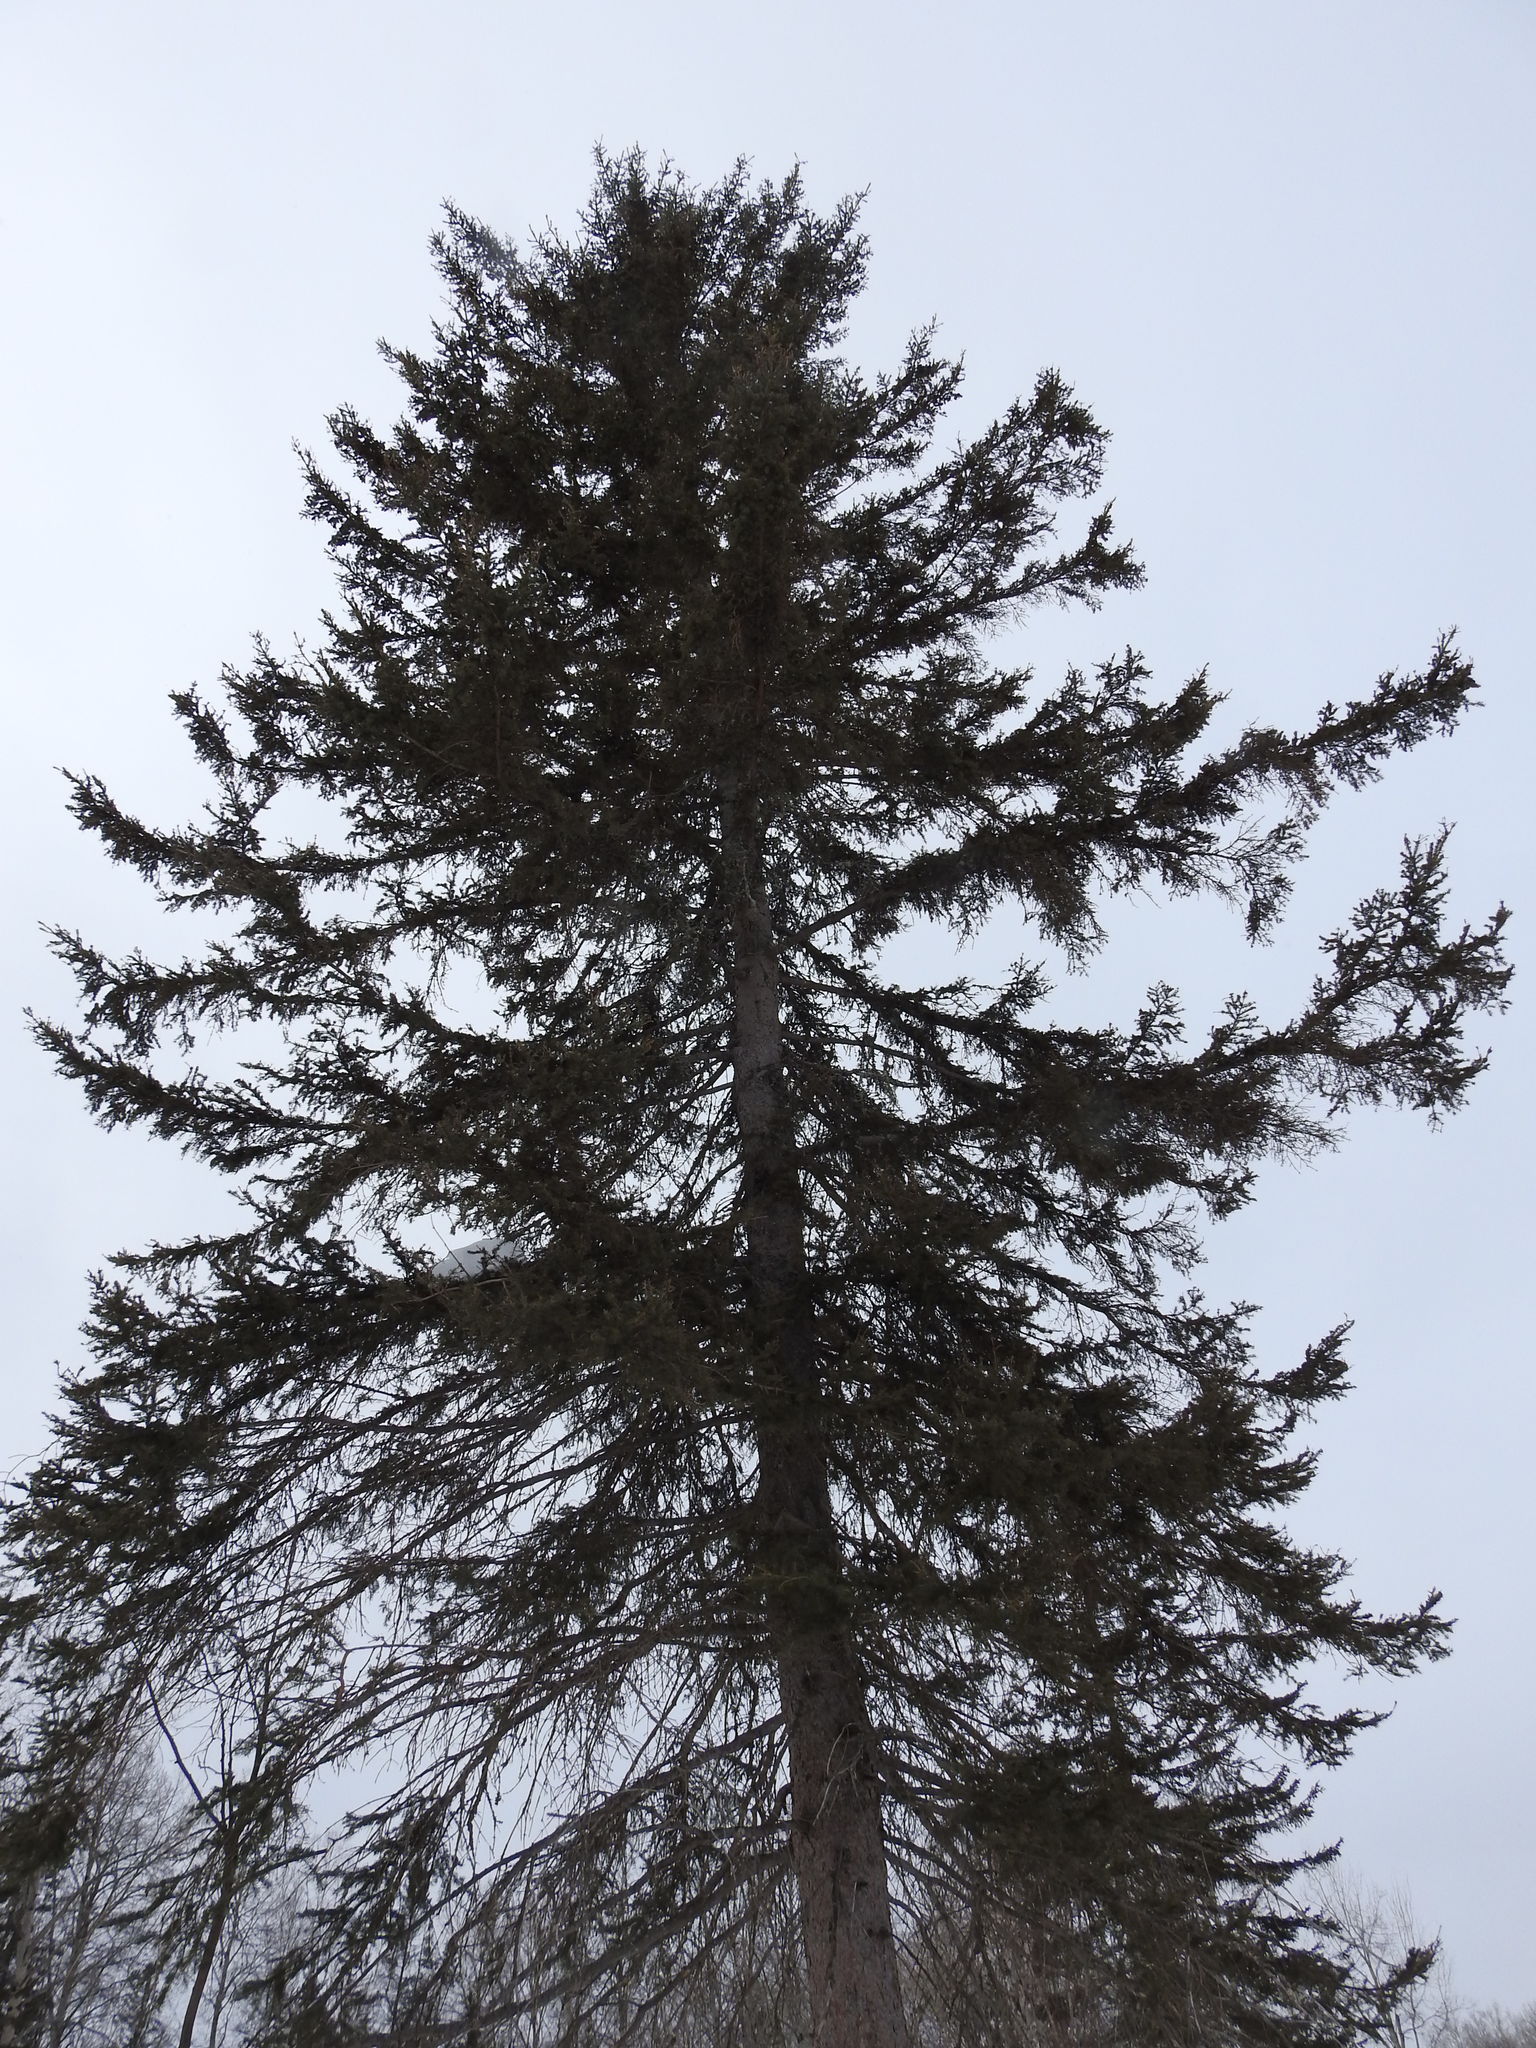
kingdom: Plantae
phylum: Tracheophyta
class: Pinopsida
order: Pinales
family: Pinaceae
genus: Picea
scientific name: Picea glauca
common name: White spruce
